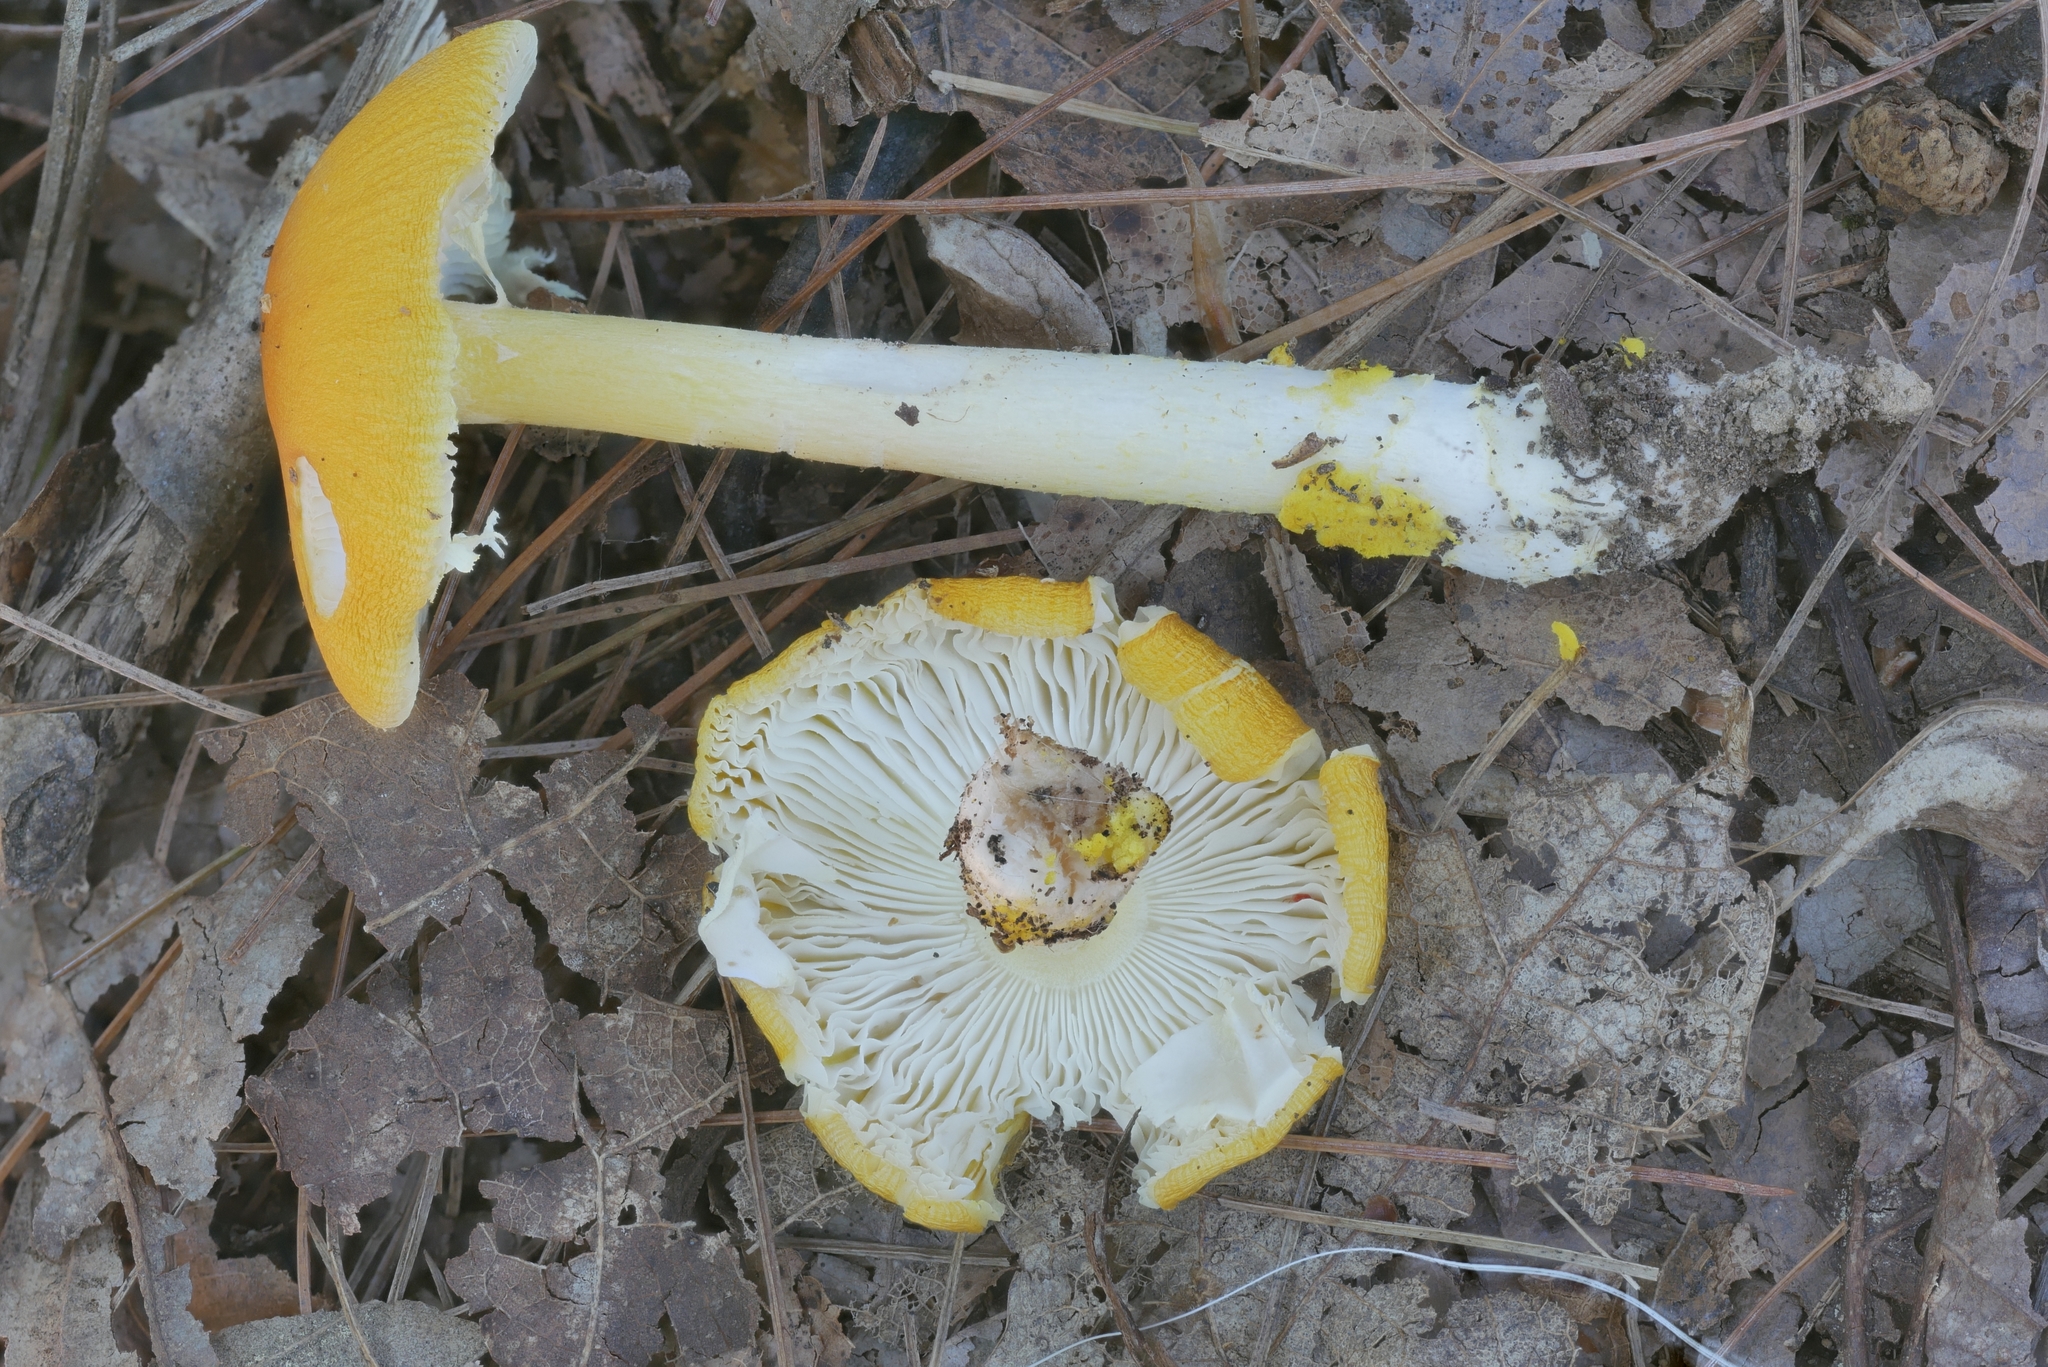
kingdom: Fungi
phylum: Basidiomycota
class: Agaricomycetes
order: Agaricales
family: Amanitaceae
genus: Amanita
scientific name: Amanita elongata
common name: Peck's yellow dust amanita
